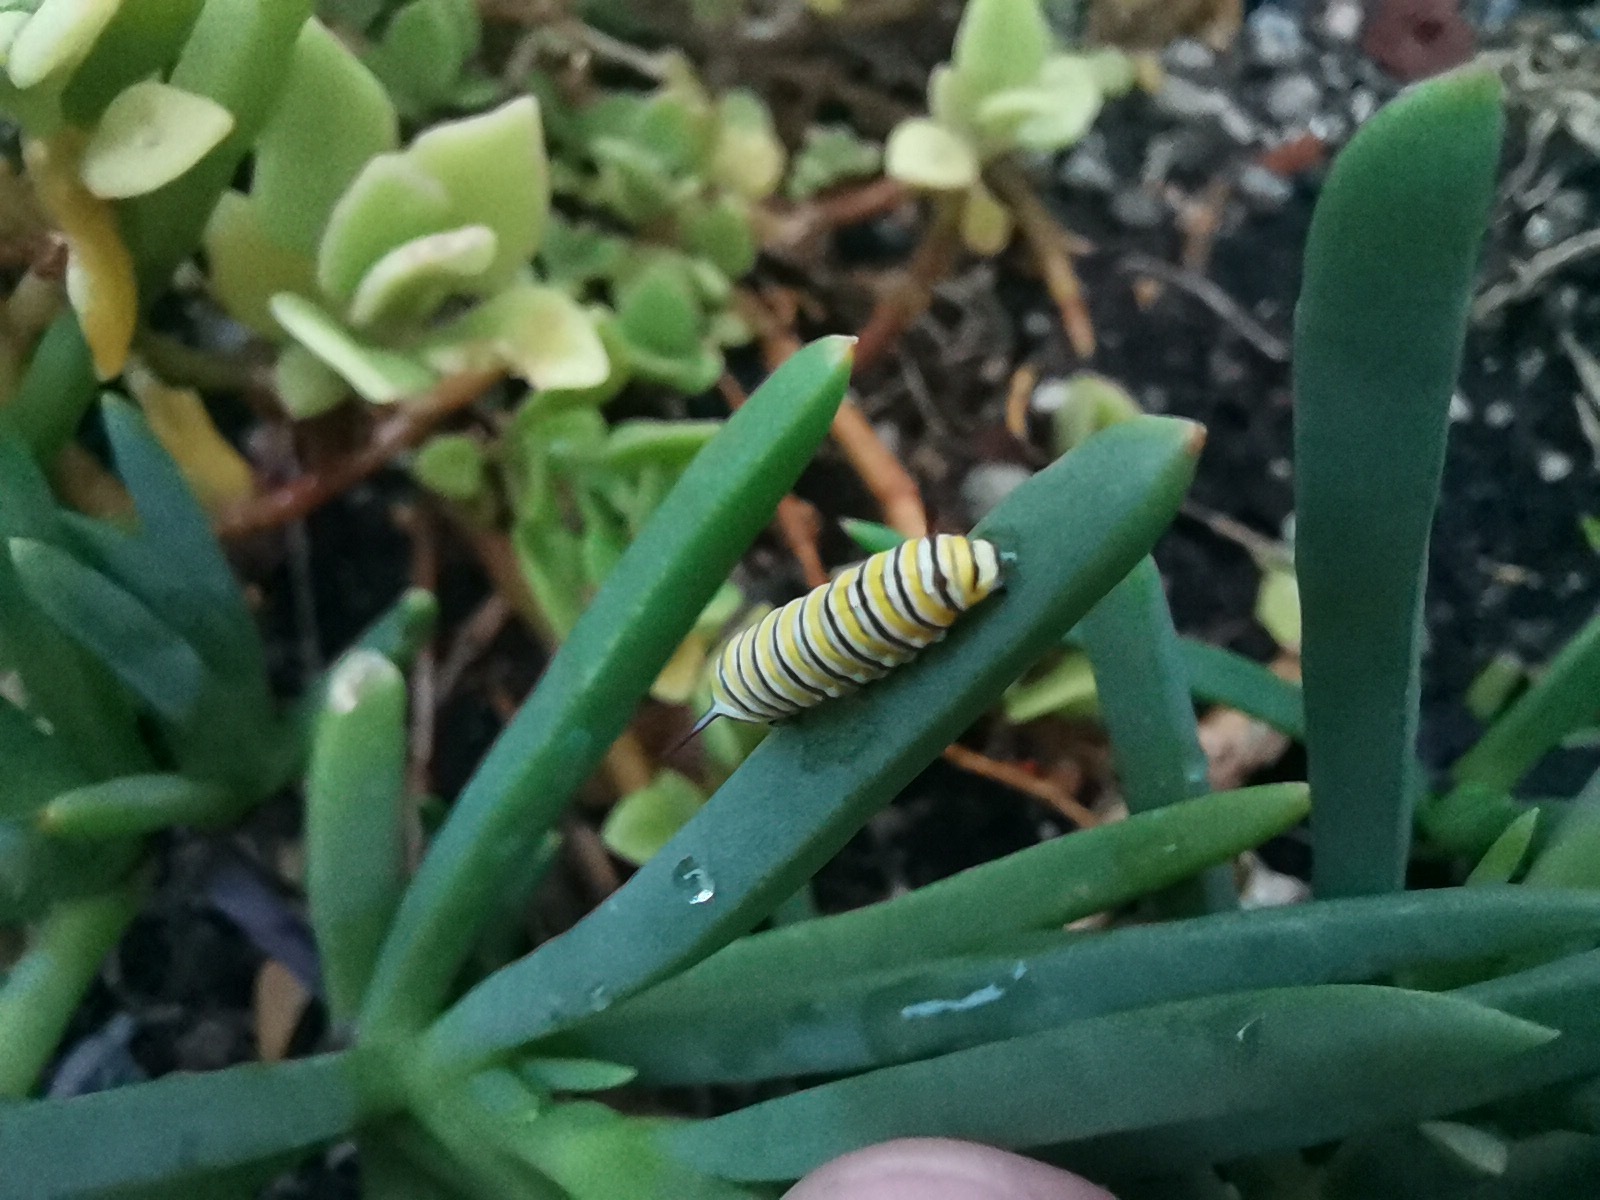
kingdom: Animalia
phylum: Arthropoda
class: Insecta
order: Lepidoptera
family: Nymphalidae
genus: Danaus
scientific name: Danaus plexippus
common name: Monarch
